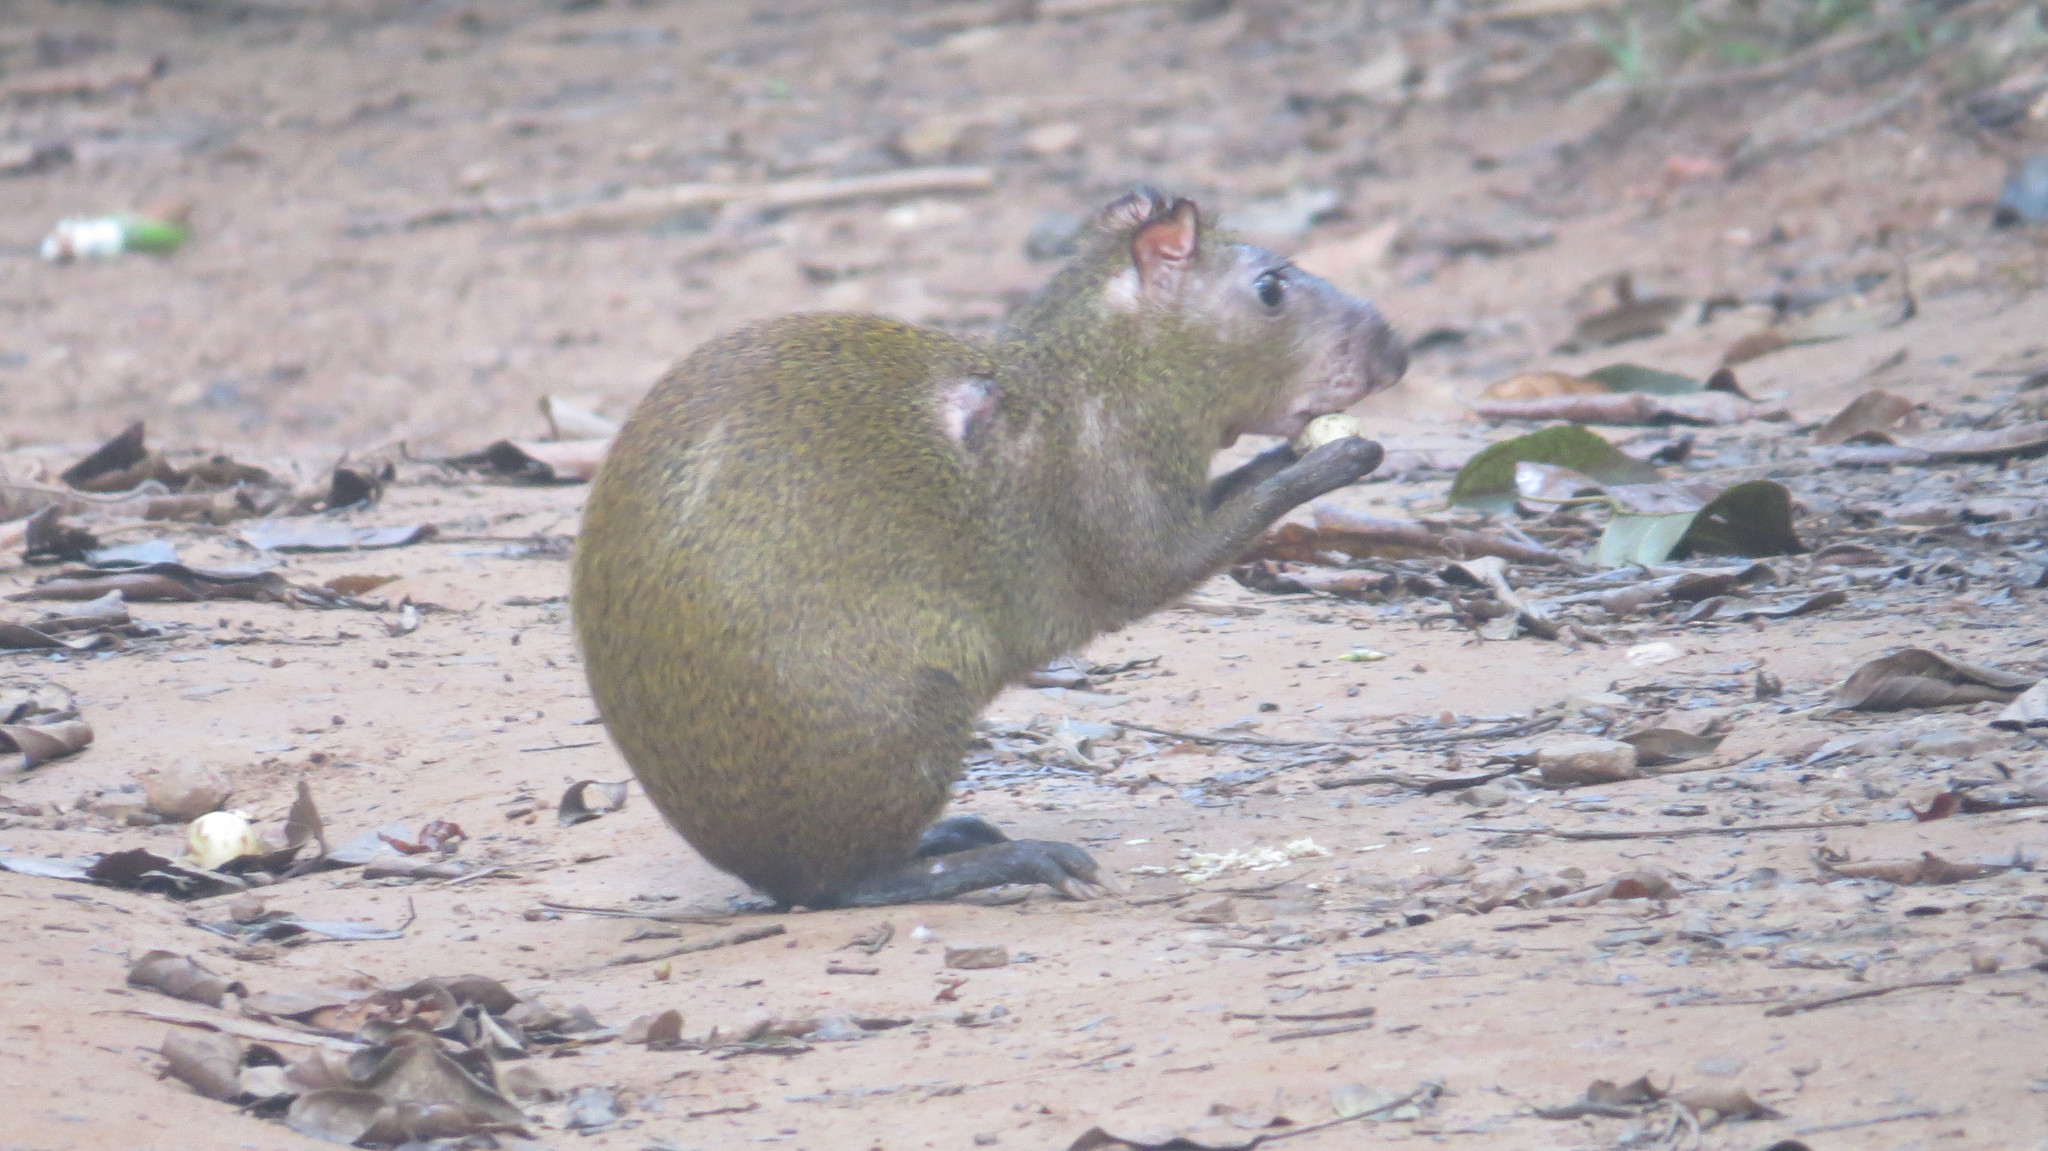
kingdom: Animalia
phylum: Chordata
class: Mammalia
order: Rodentia
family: Dasyproctidae
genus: Dasyprocta
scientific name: Dasyprocta punctata
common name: Central american agouti
